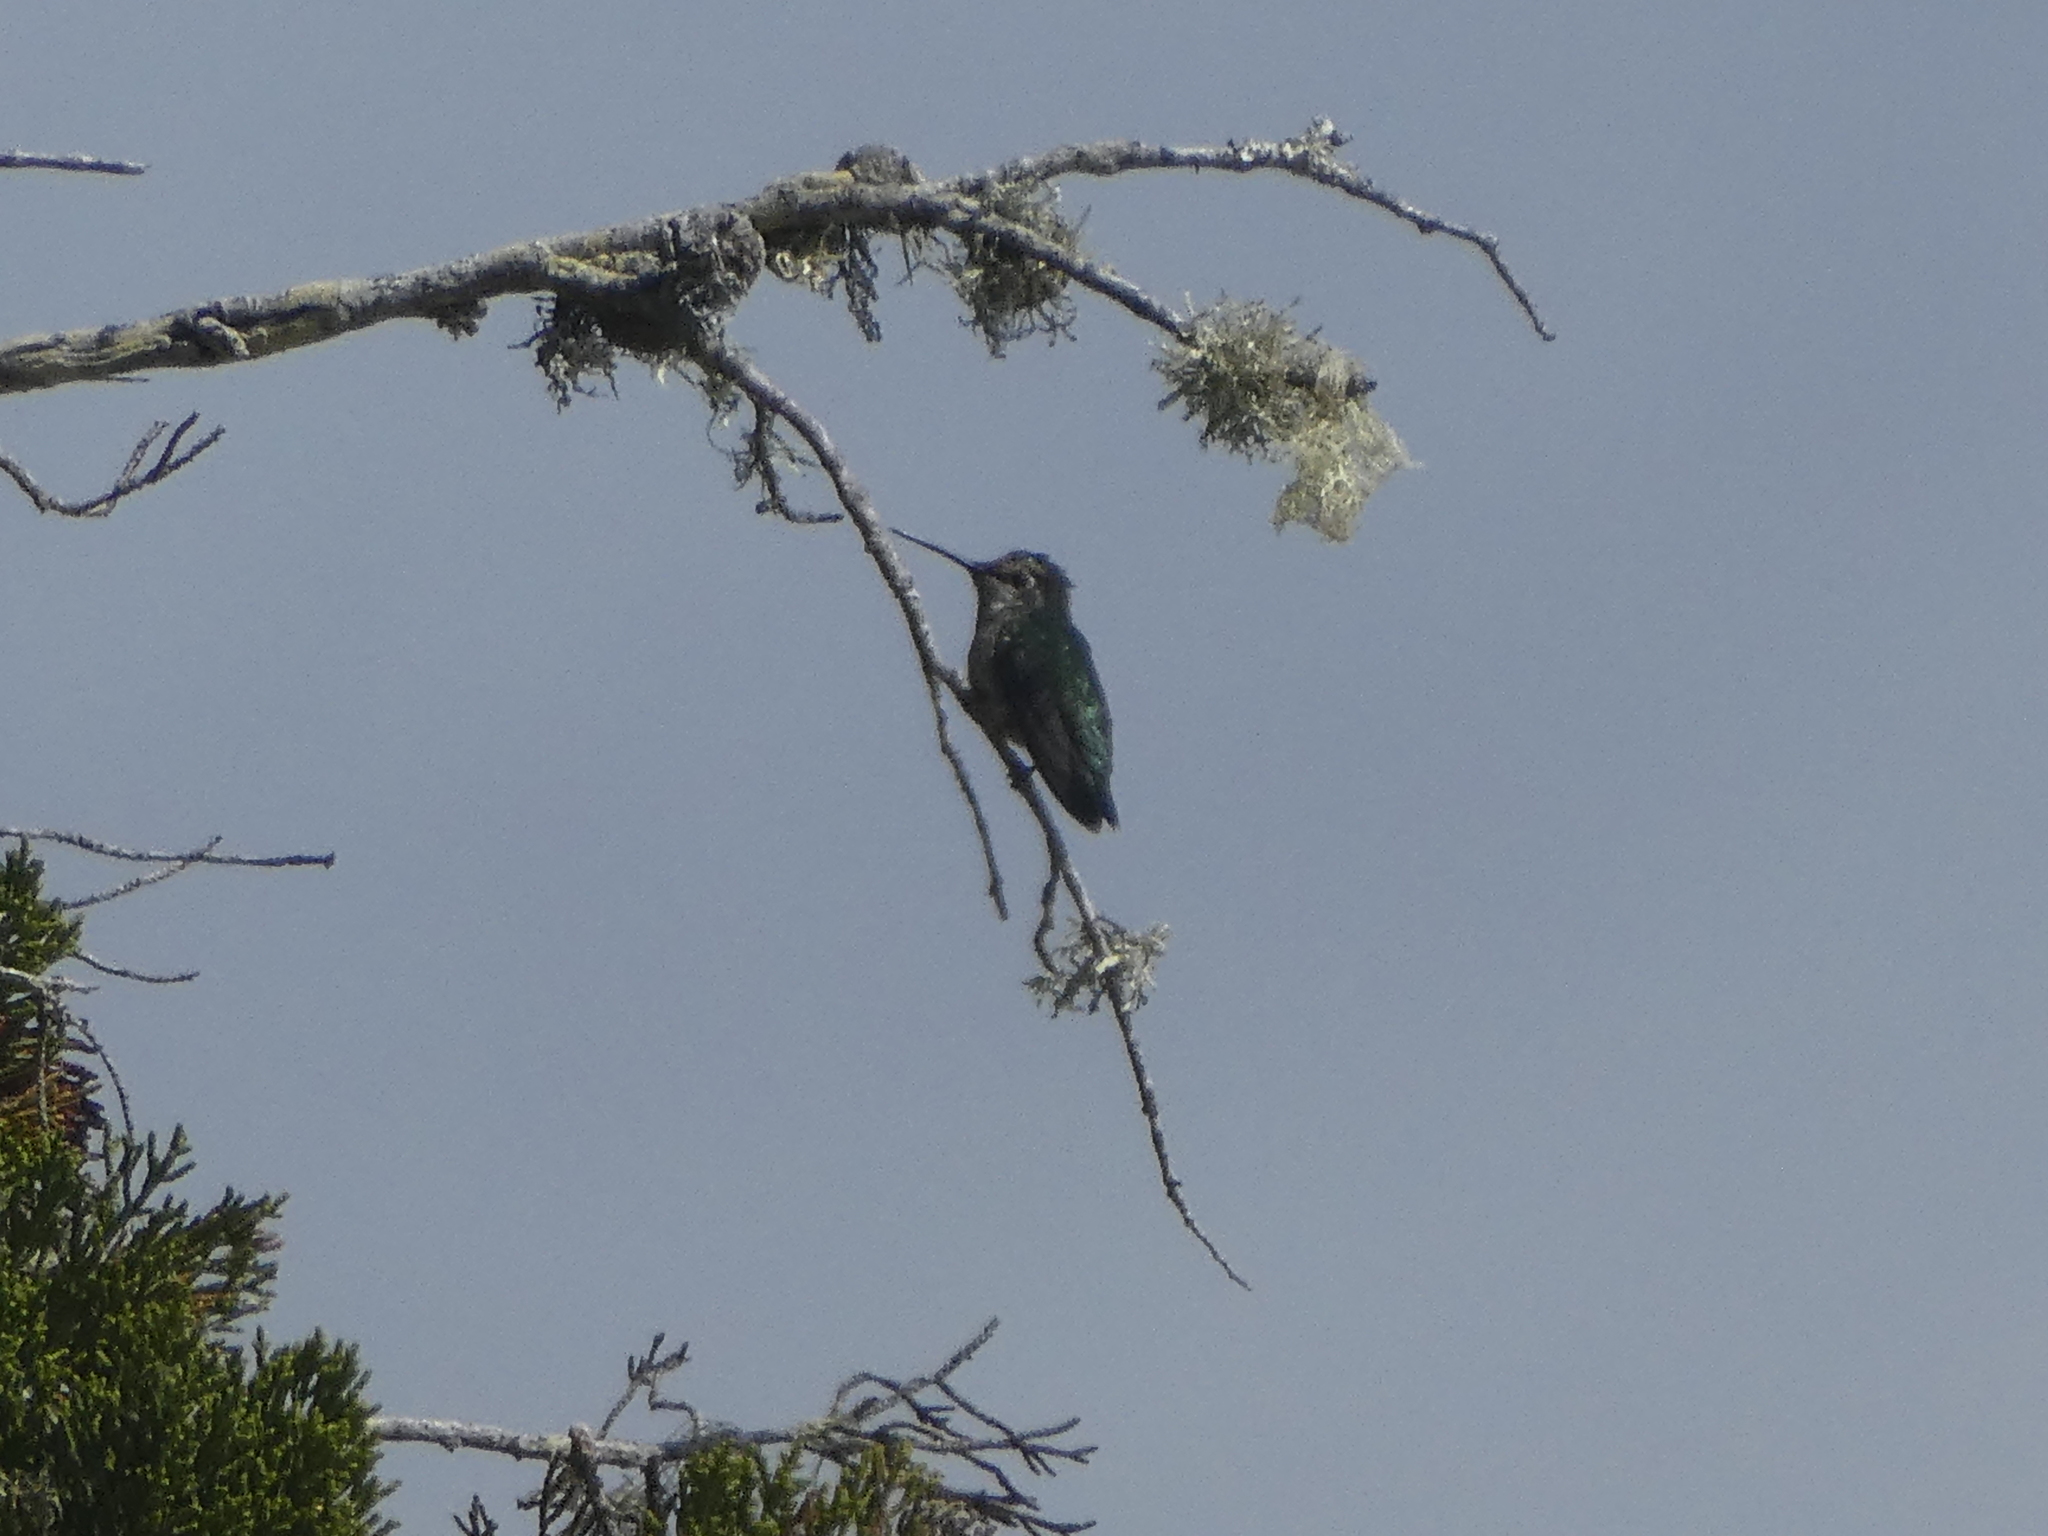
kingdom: Animalia
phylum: Chordata
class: Aves
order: Apodiformes
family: Trochilidae
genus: Calypte
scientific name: Calypte anna
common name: Anna's hummingbird
